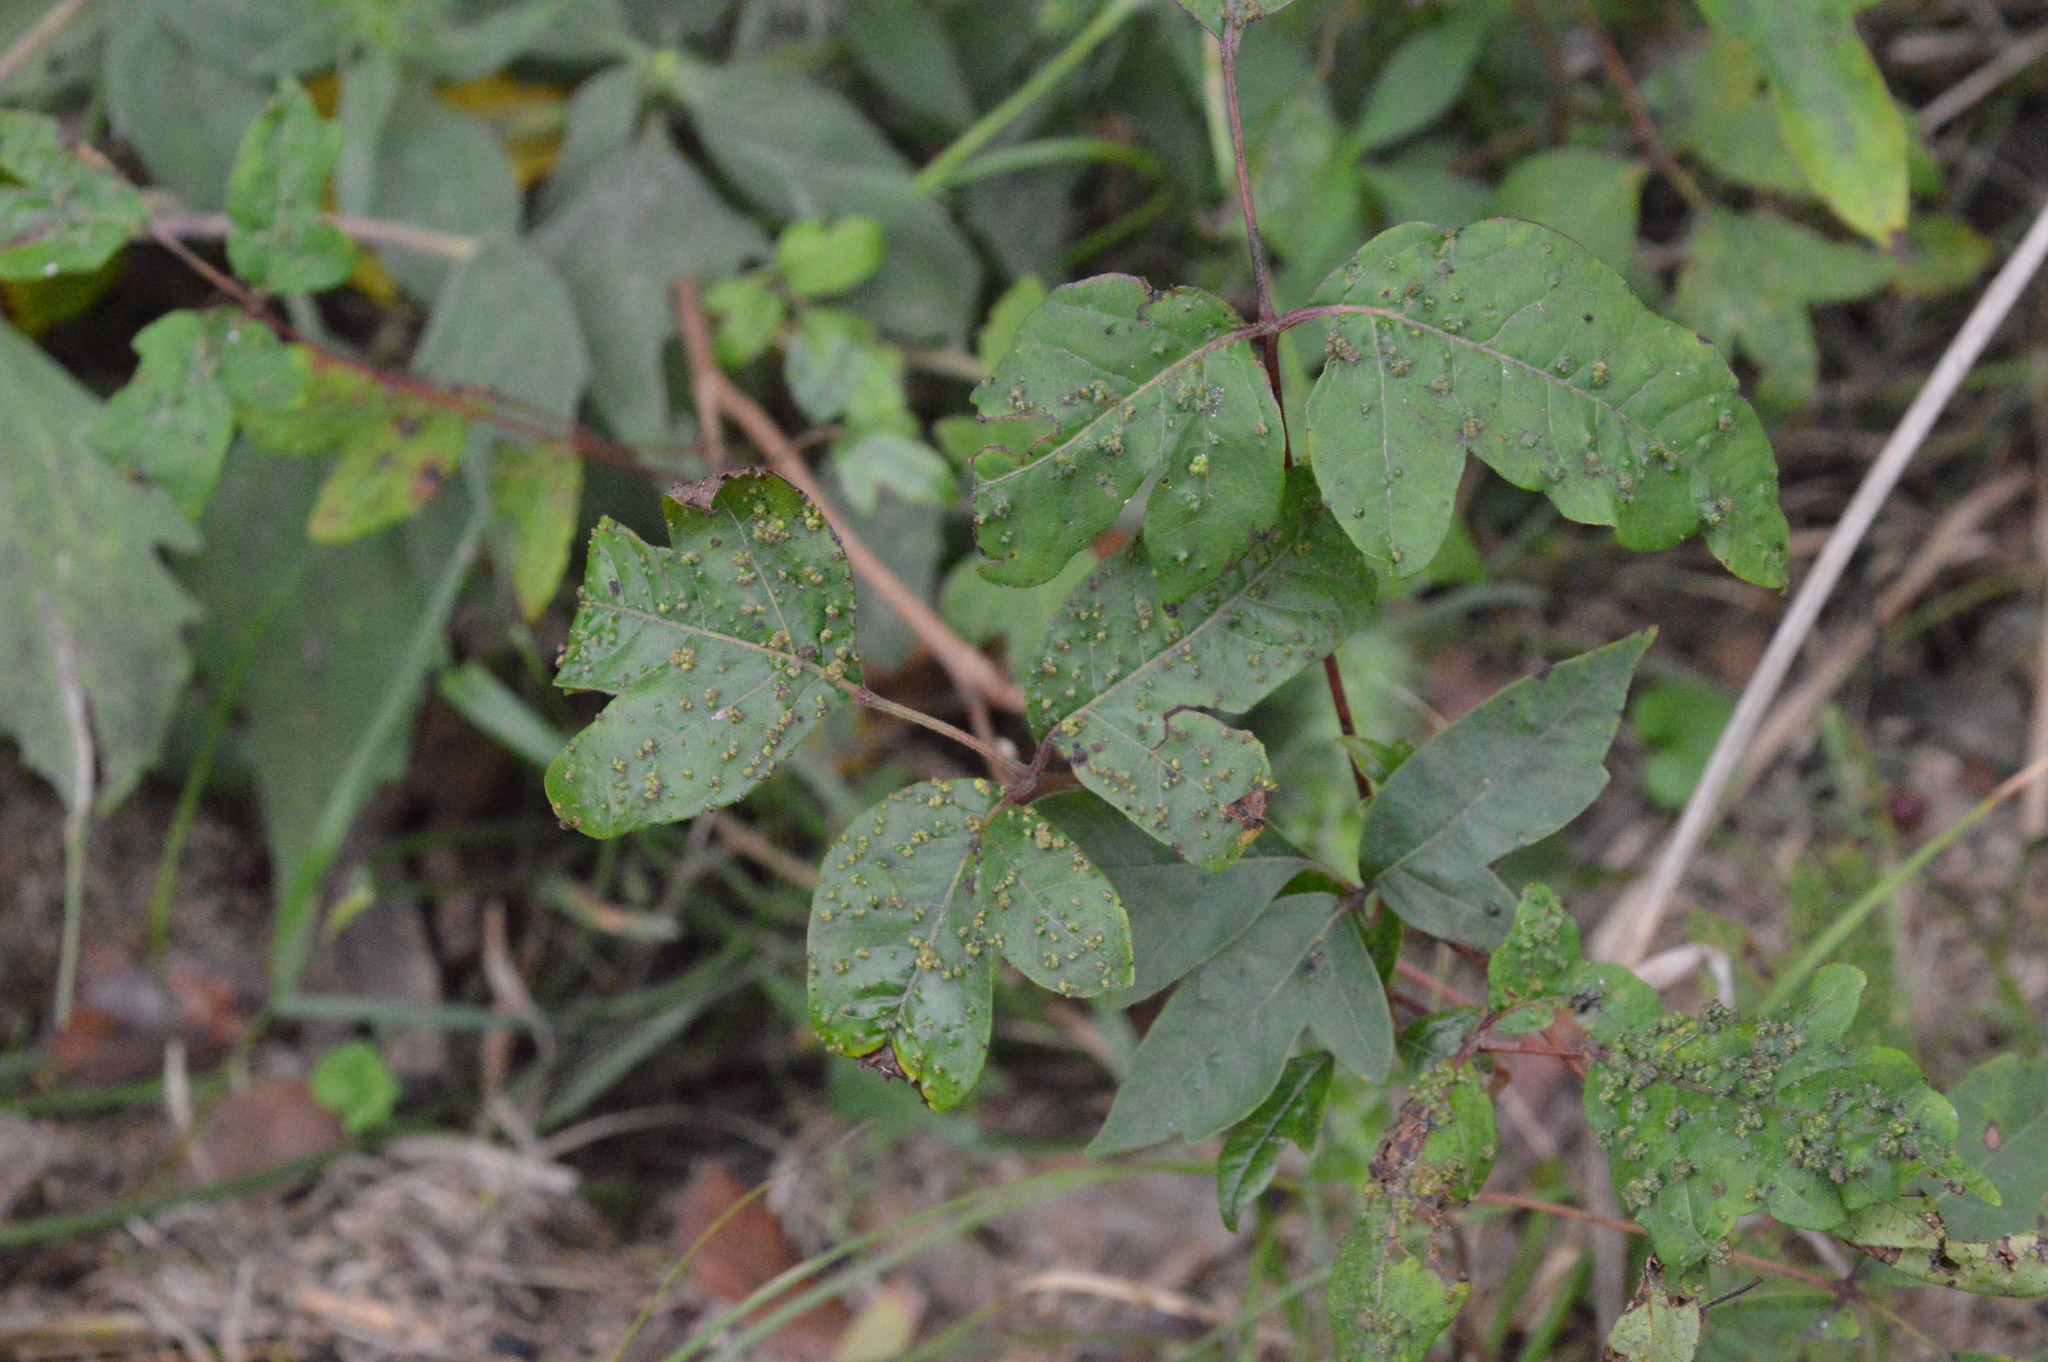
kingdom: Animalia
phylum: Arthropoda
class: Arachnida
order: Trombidiformes
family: Eriophyidae
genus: Aculops
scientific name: Aculops
